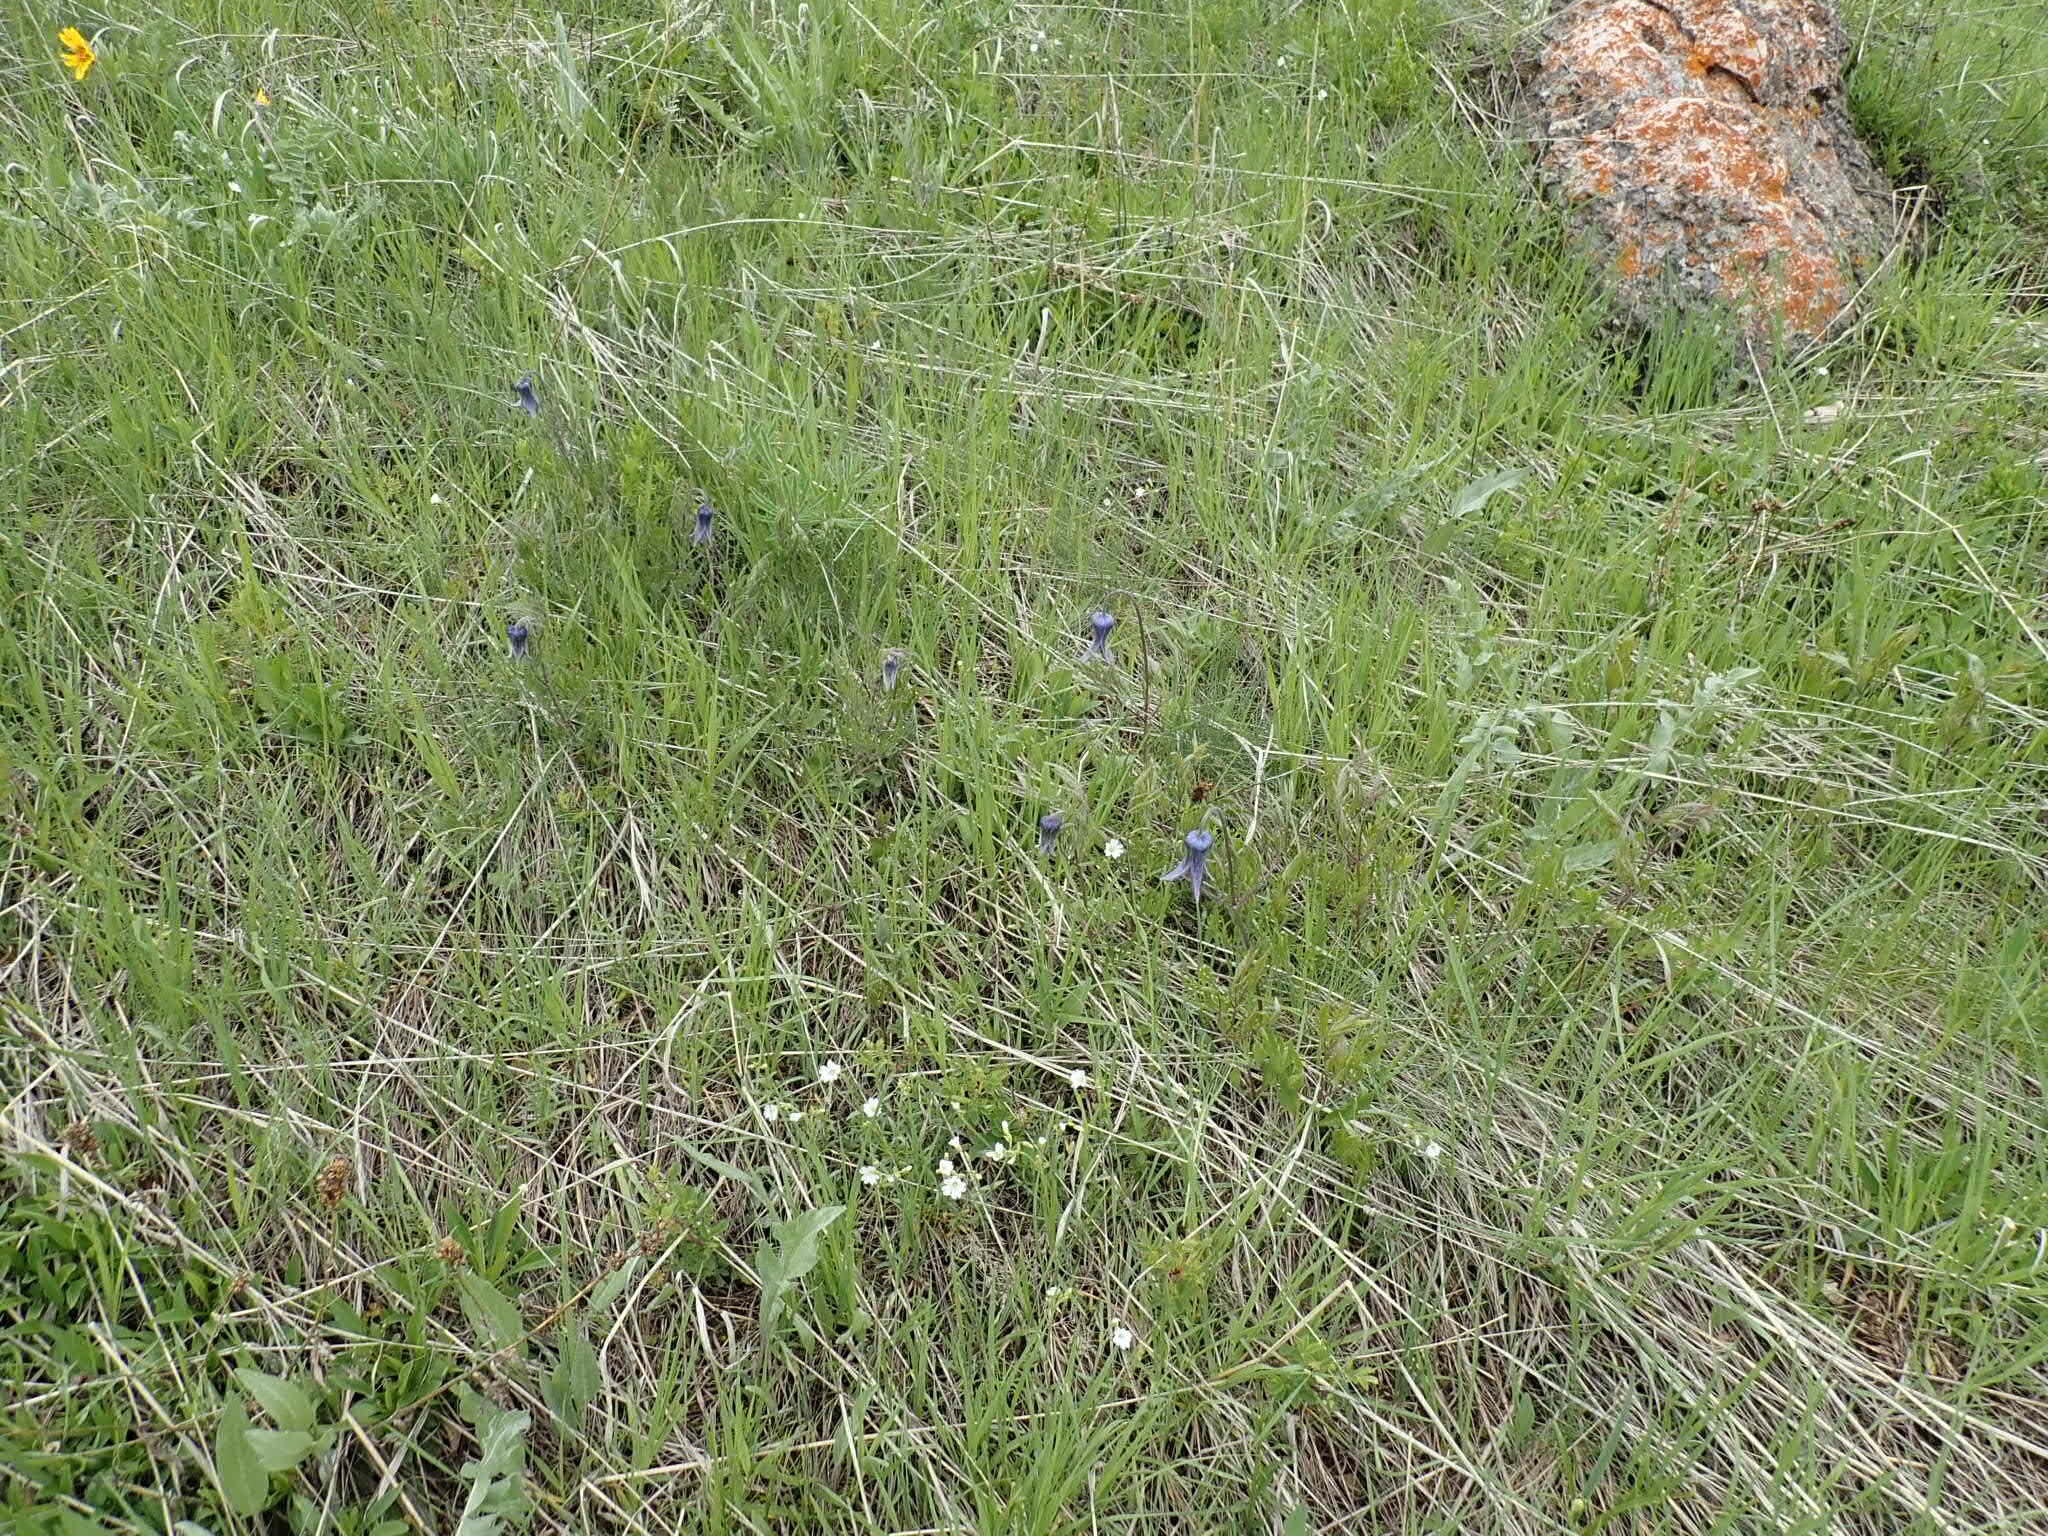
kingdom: Plantae
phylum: Tracheophyta
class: Magnoliopsida
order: Ranunculales
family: Ranunculaceae
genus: Clematis
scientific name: Clematis hirsutissima
